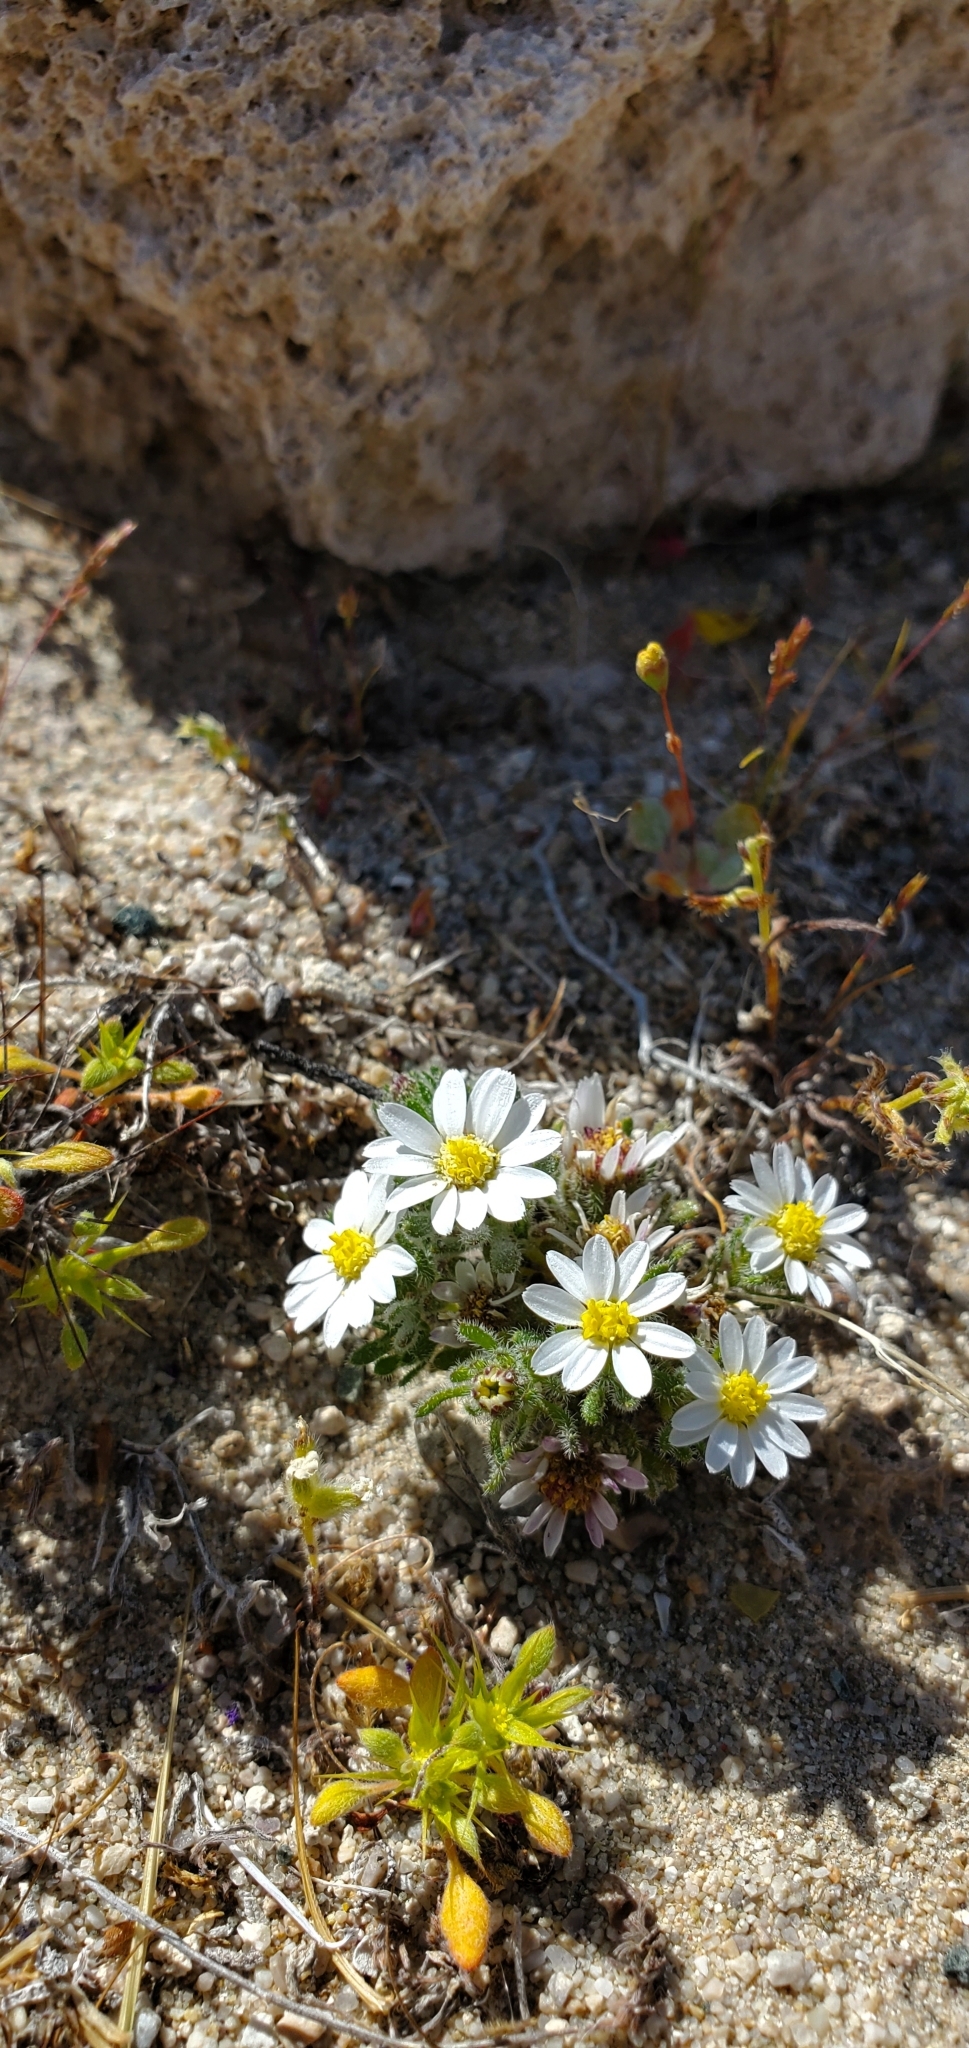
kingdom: Plantae
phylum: Tracheophyta
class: Magnoliopsida
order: Asterales
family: Asteraceae
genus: Monoptilon
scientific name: Monoptilon bellioides
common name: Bristly desertstar
